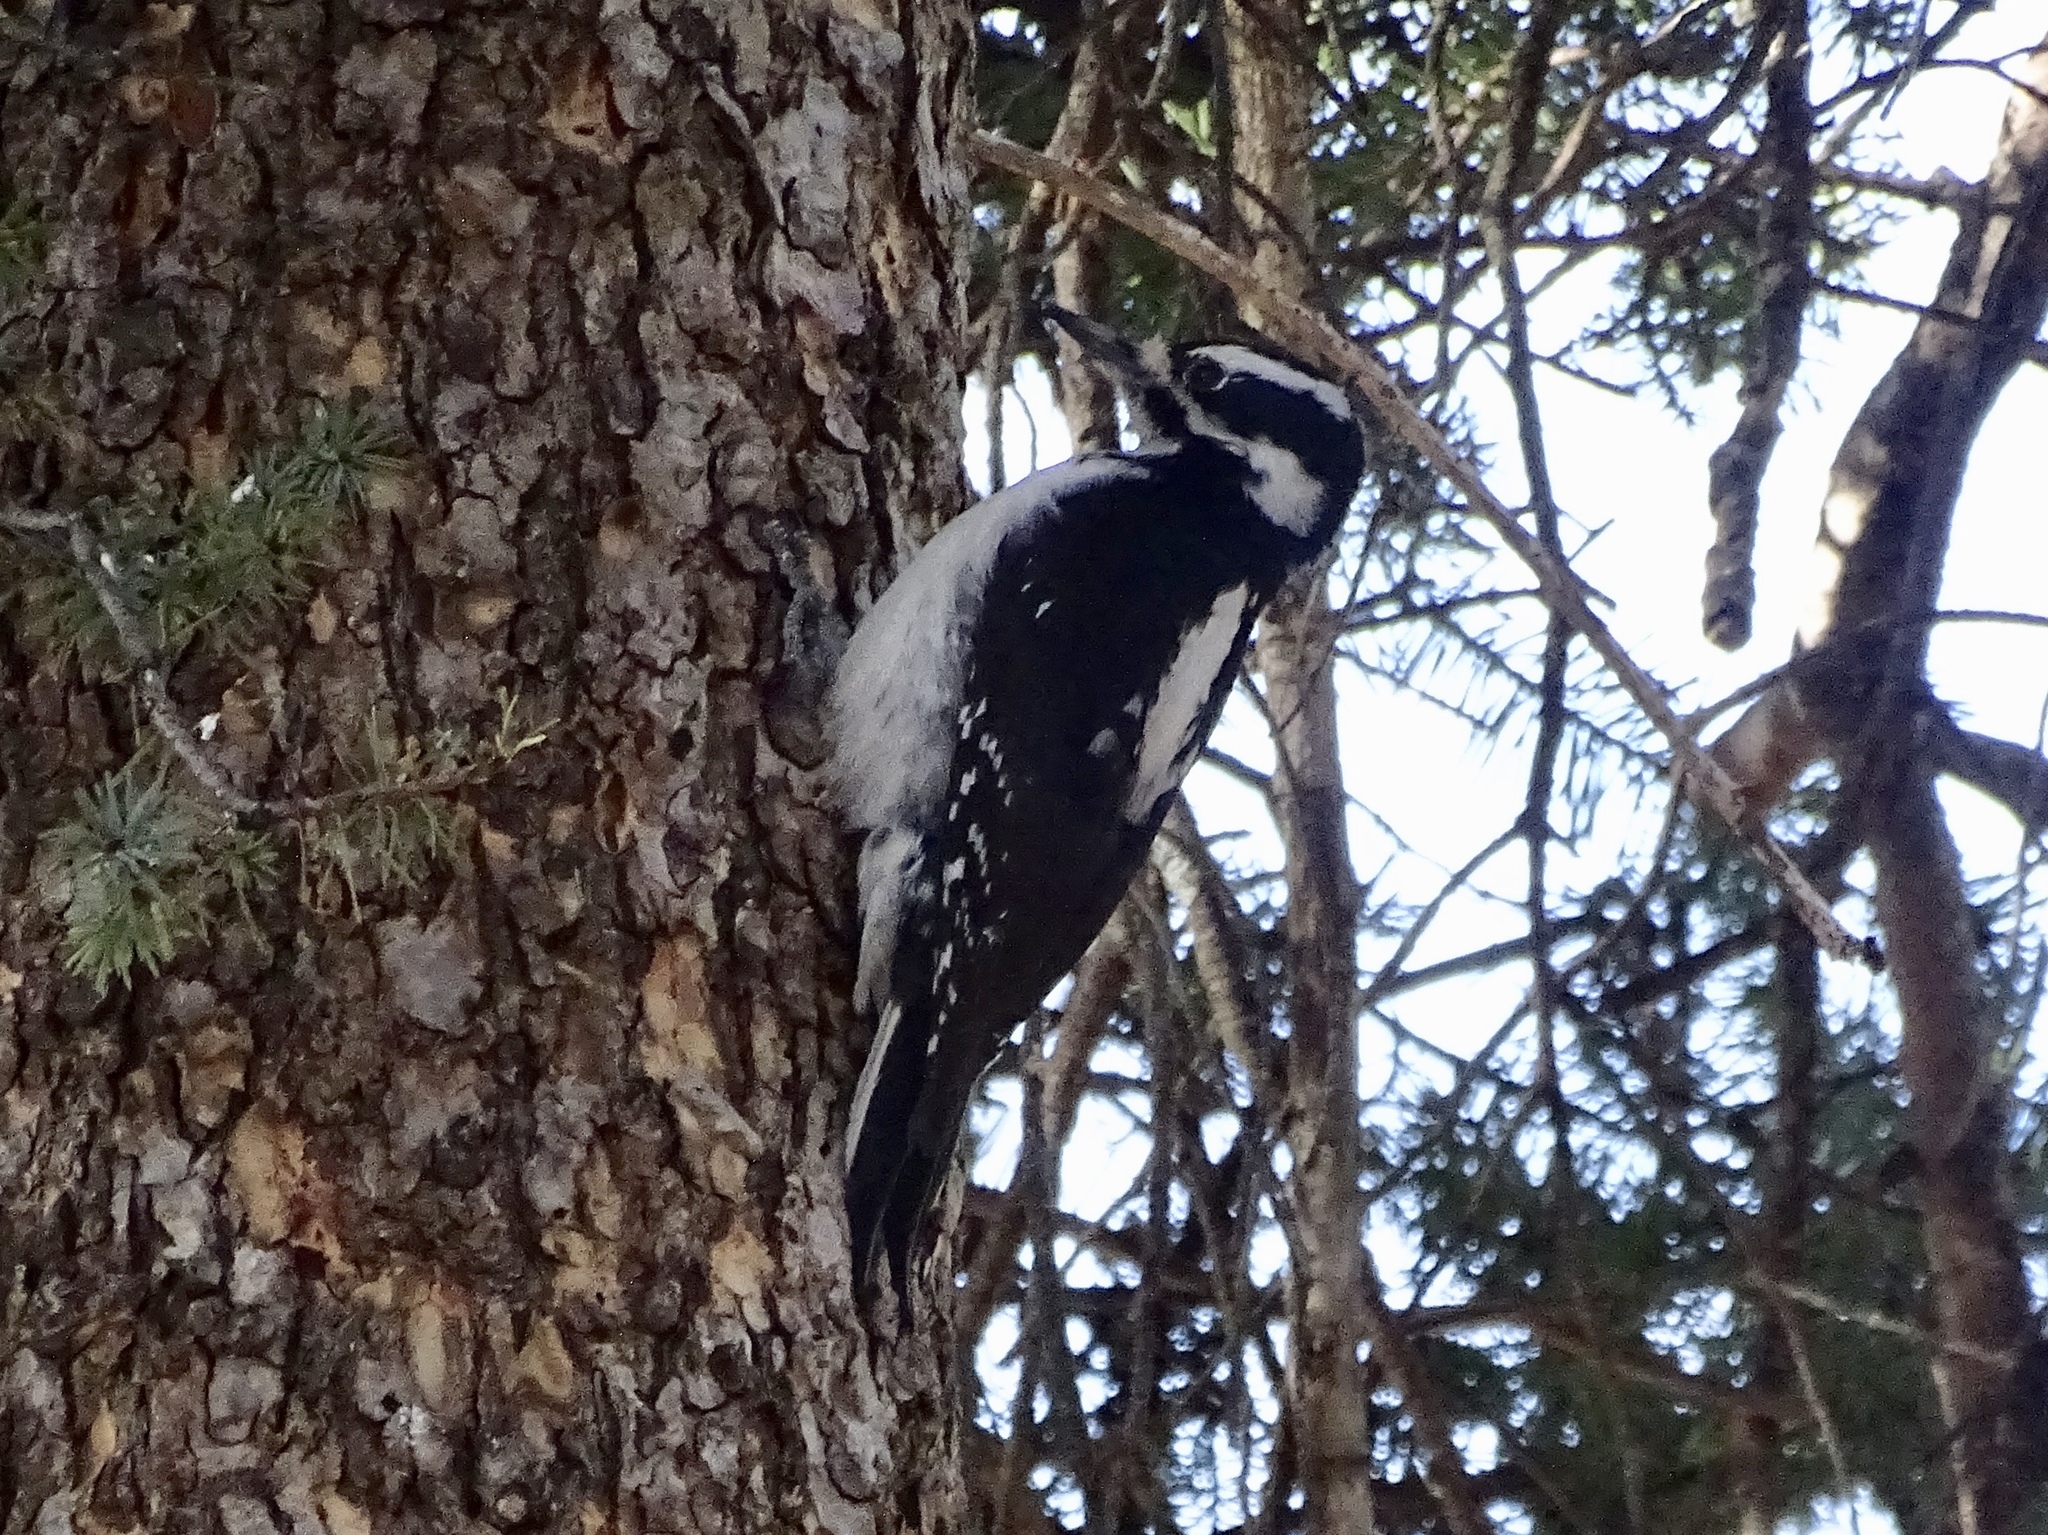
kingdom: Animalia
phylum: Chordata
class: Aves
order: Piciformes
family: Picidae
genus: Leuconotopicus
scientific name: Leuconotopicus villosus
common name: Hairy woodpecker
